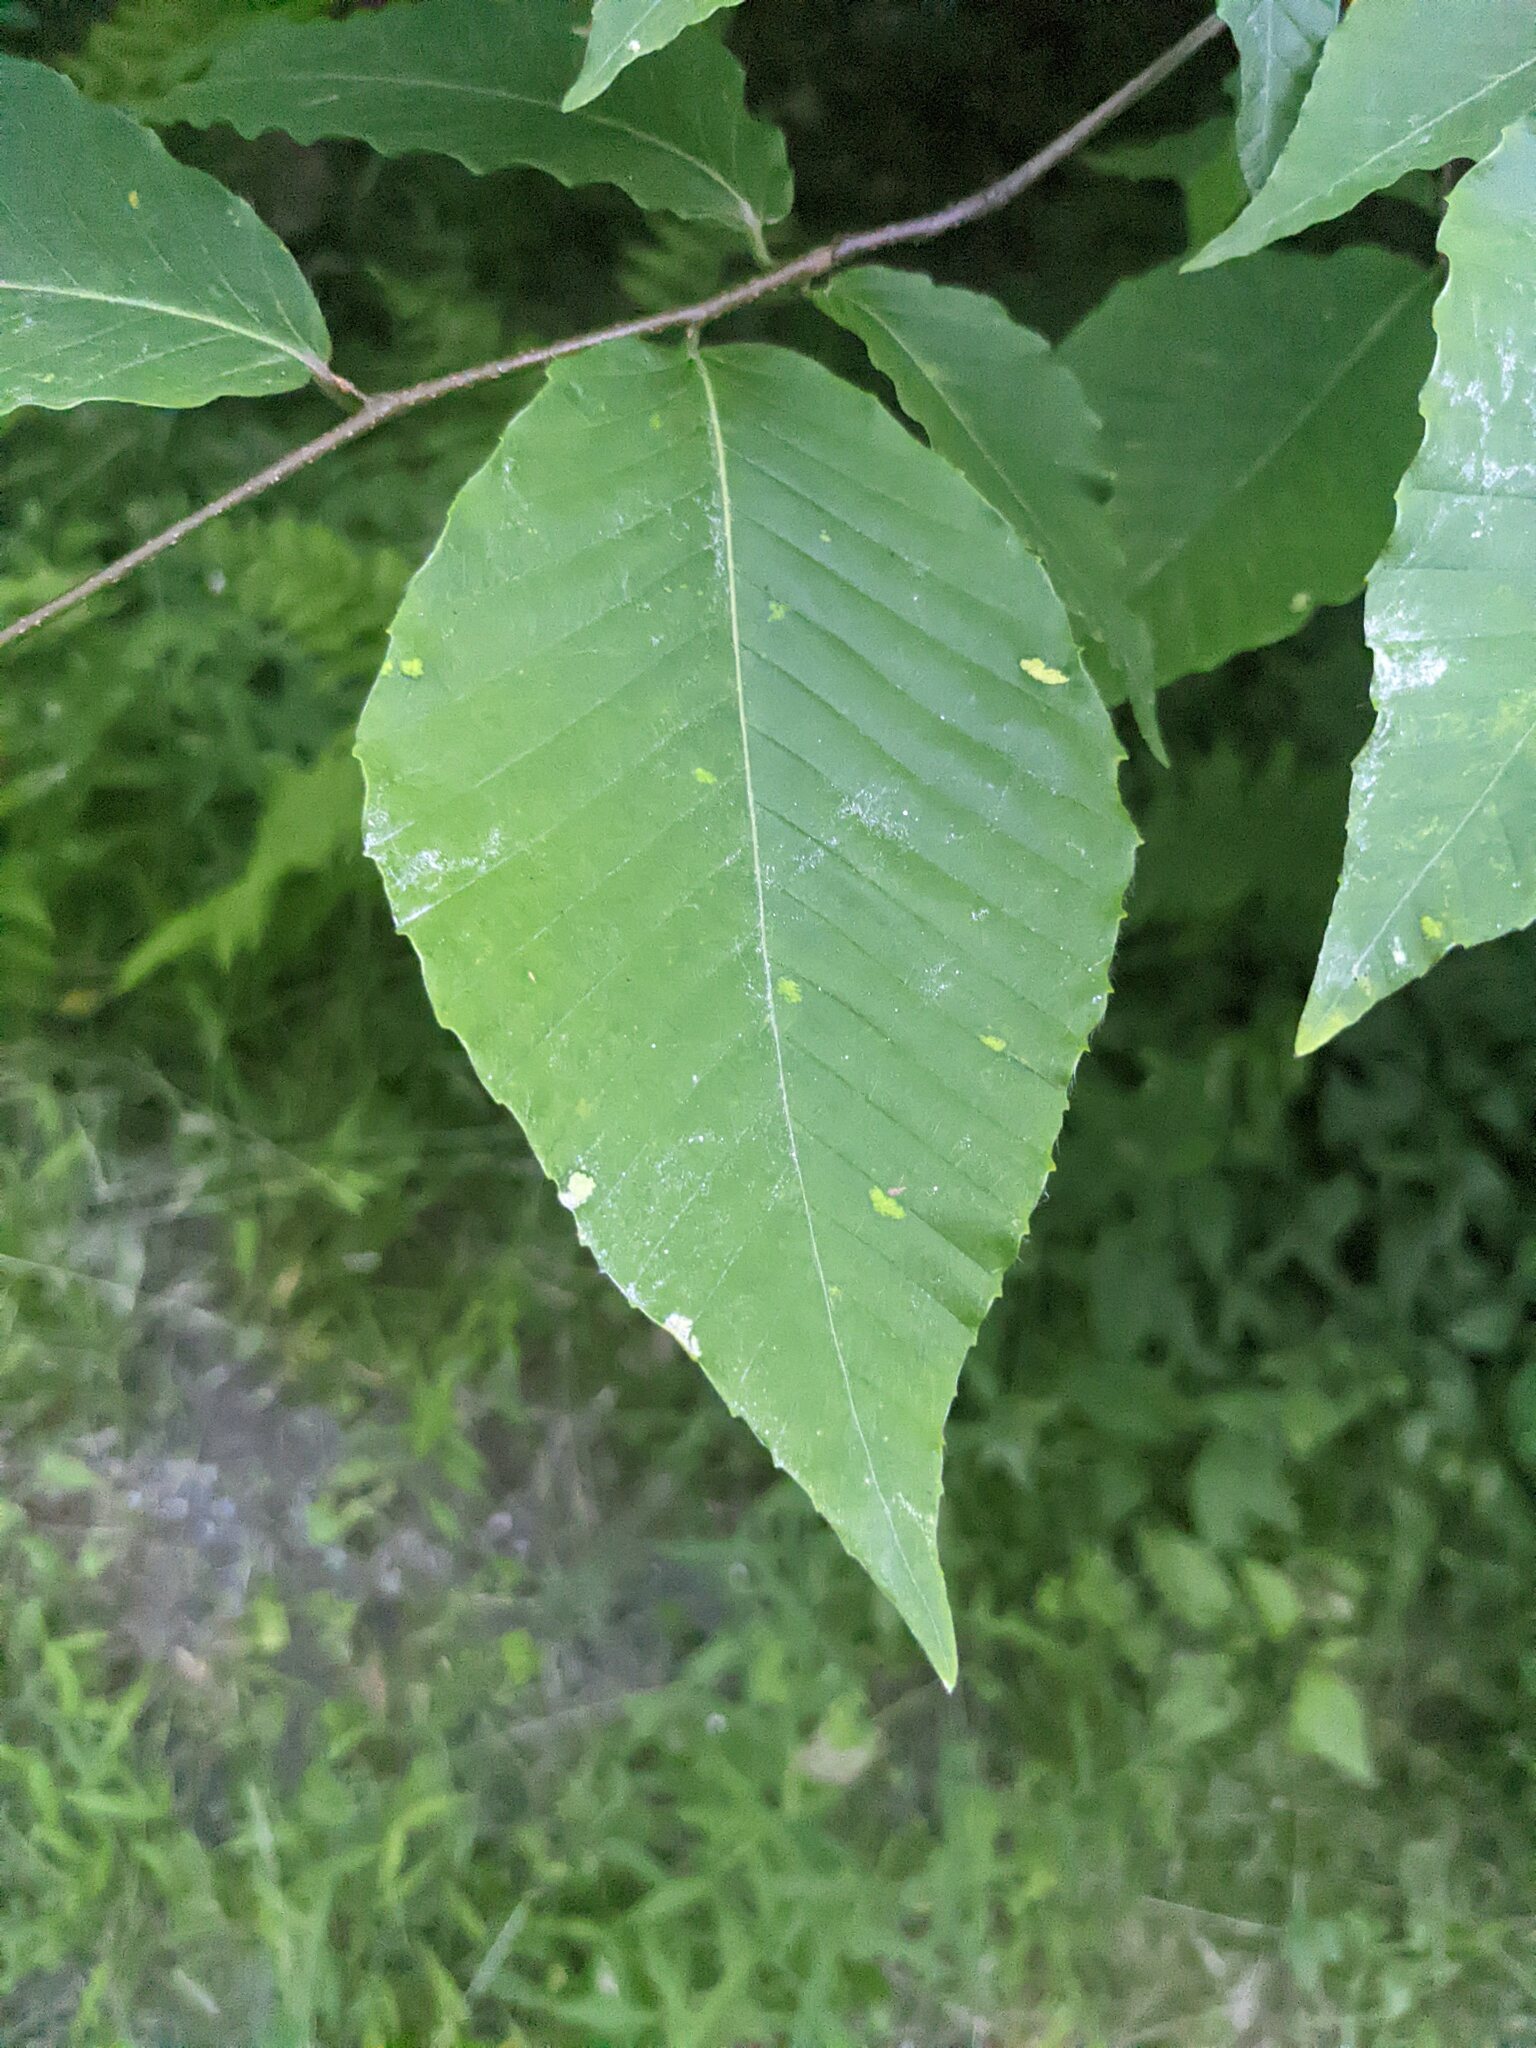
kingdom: Animalia
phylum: Arthropoda
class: Arachnida
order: Trombidiformes
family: Eriophyidae
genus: Acalitus
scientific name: Acalitus
